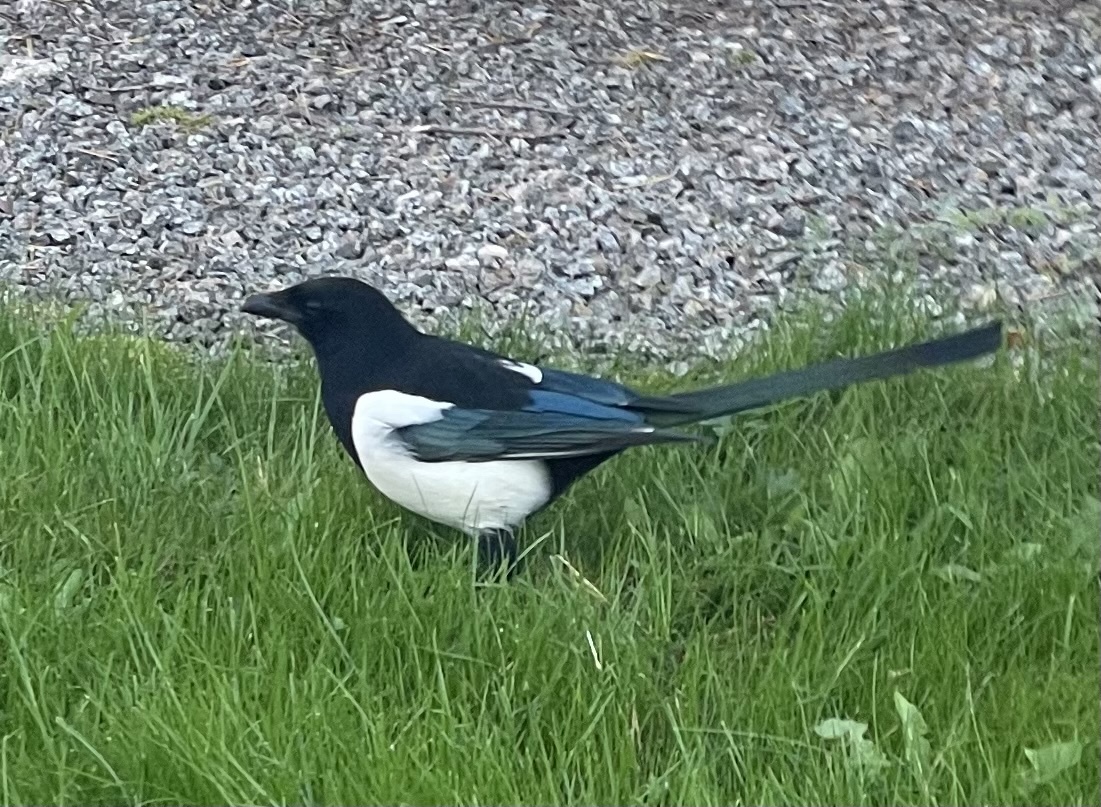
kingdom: Animalia
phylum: Chordata
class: Aves
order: Passeriformes
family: Corvidae
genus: Pica
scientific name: Pica pica
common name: Eurasian magpie
